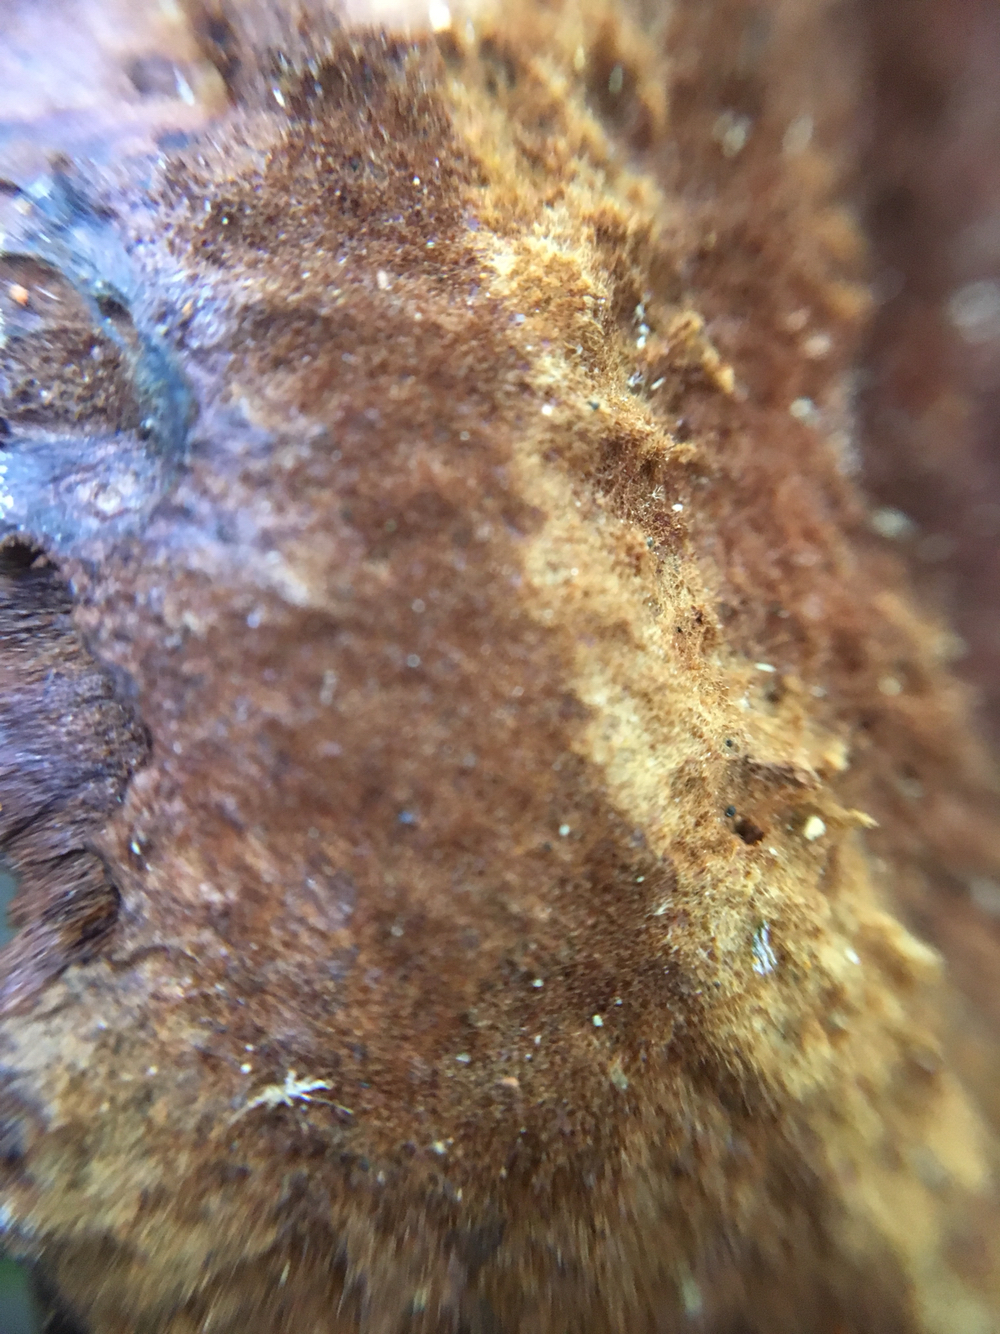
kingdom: Fungi
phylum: Basidiomycota
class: Agaricomycetes
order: Polyporales
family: Laetiporaceae
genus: Phaeolus
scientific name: Phaeolus schweinitzii
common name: Dyer's mazegill
